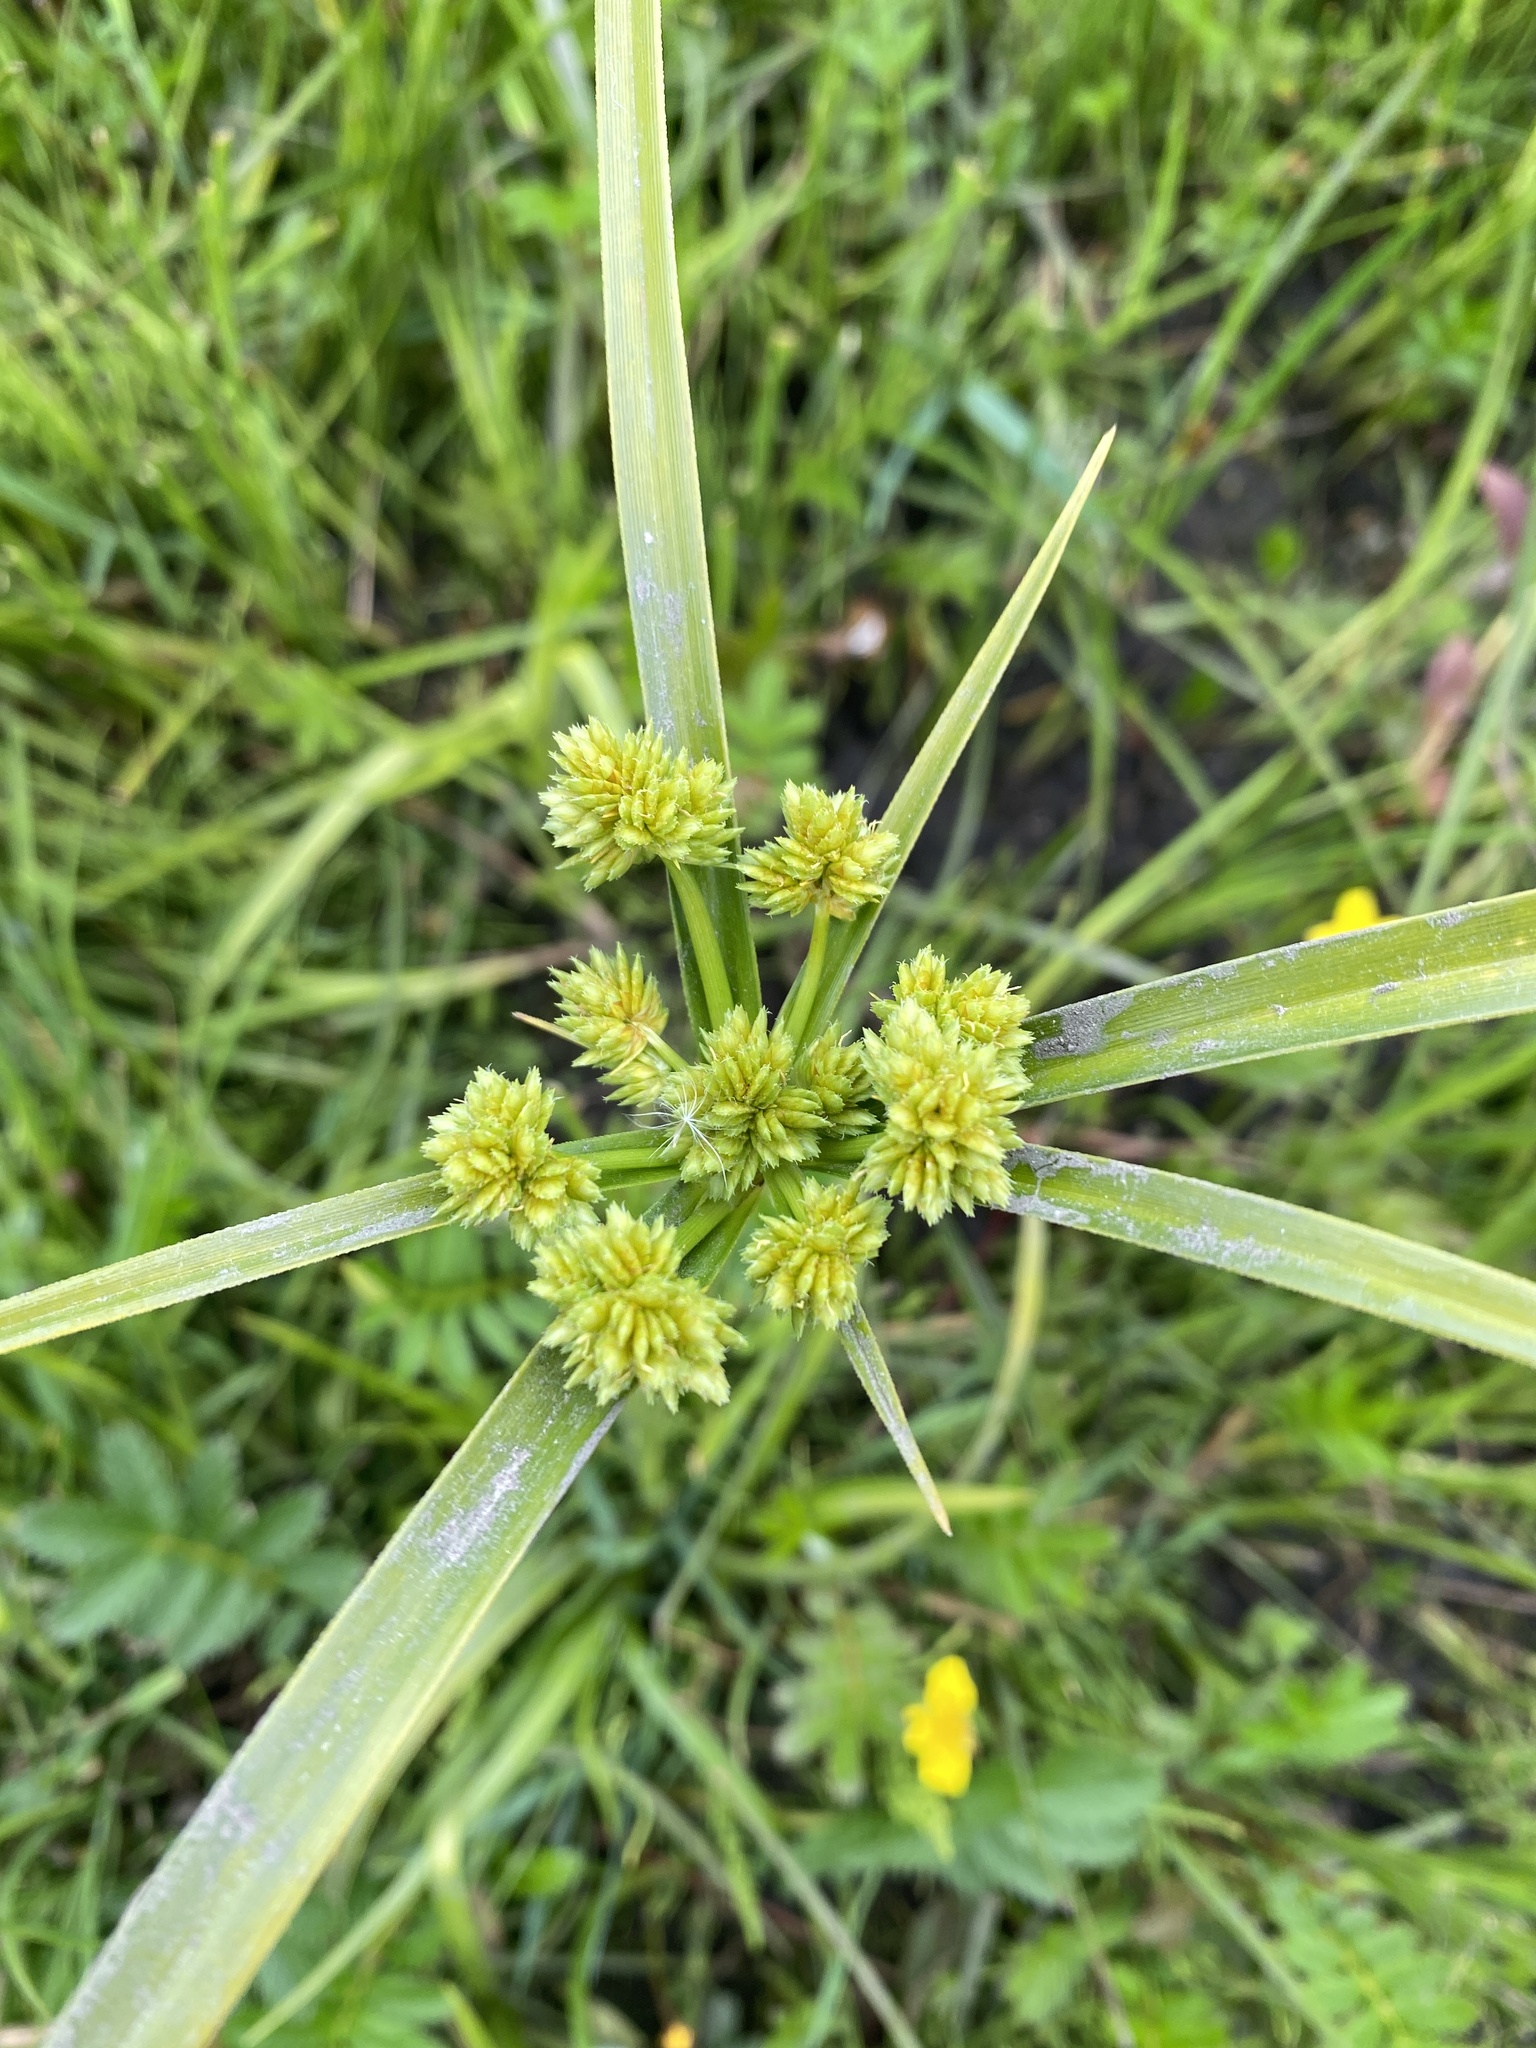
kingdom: Plantae
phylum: Tracheophyta
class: Liliopsida
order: Poales
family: Cyperaceae
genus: Cyperus
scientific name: Cyperus eragrostis
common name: Tall flatsedge
